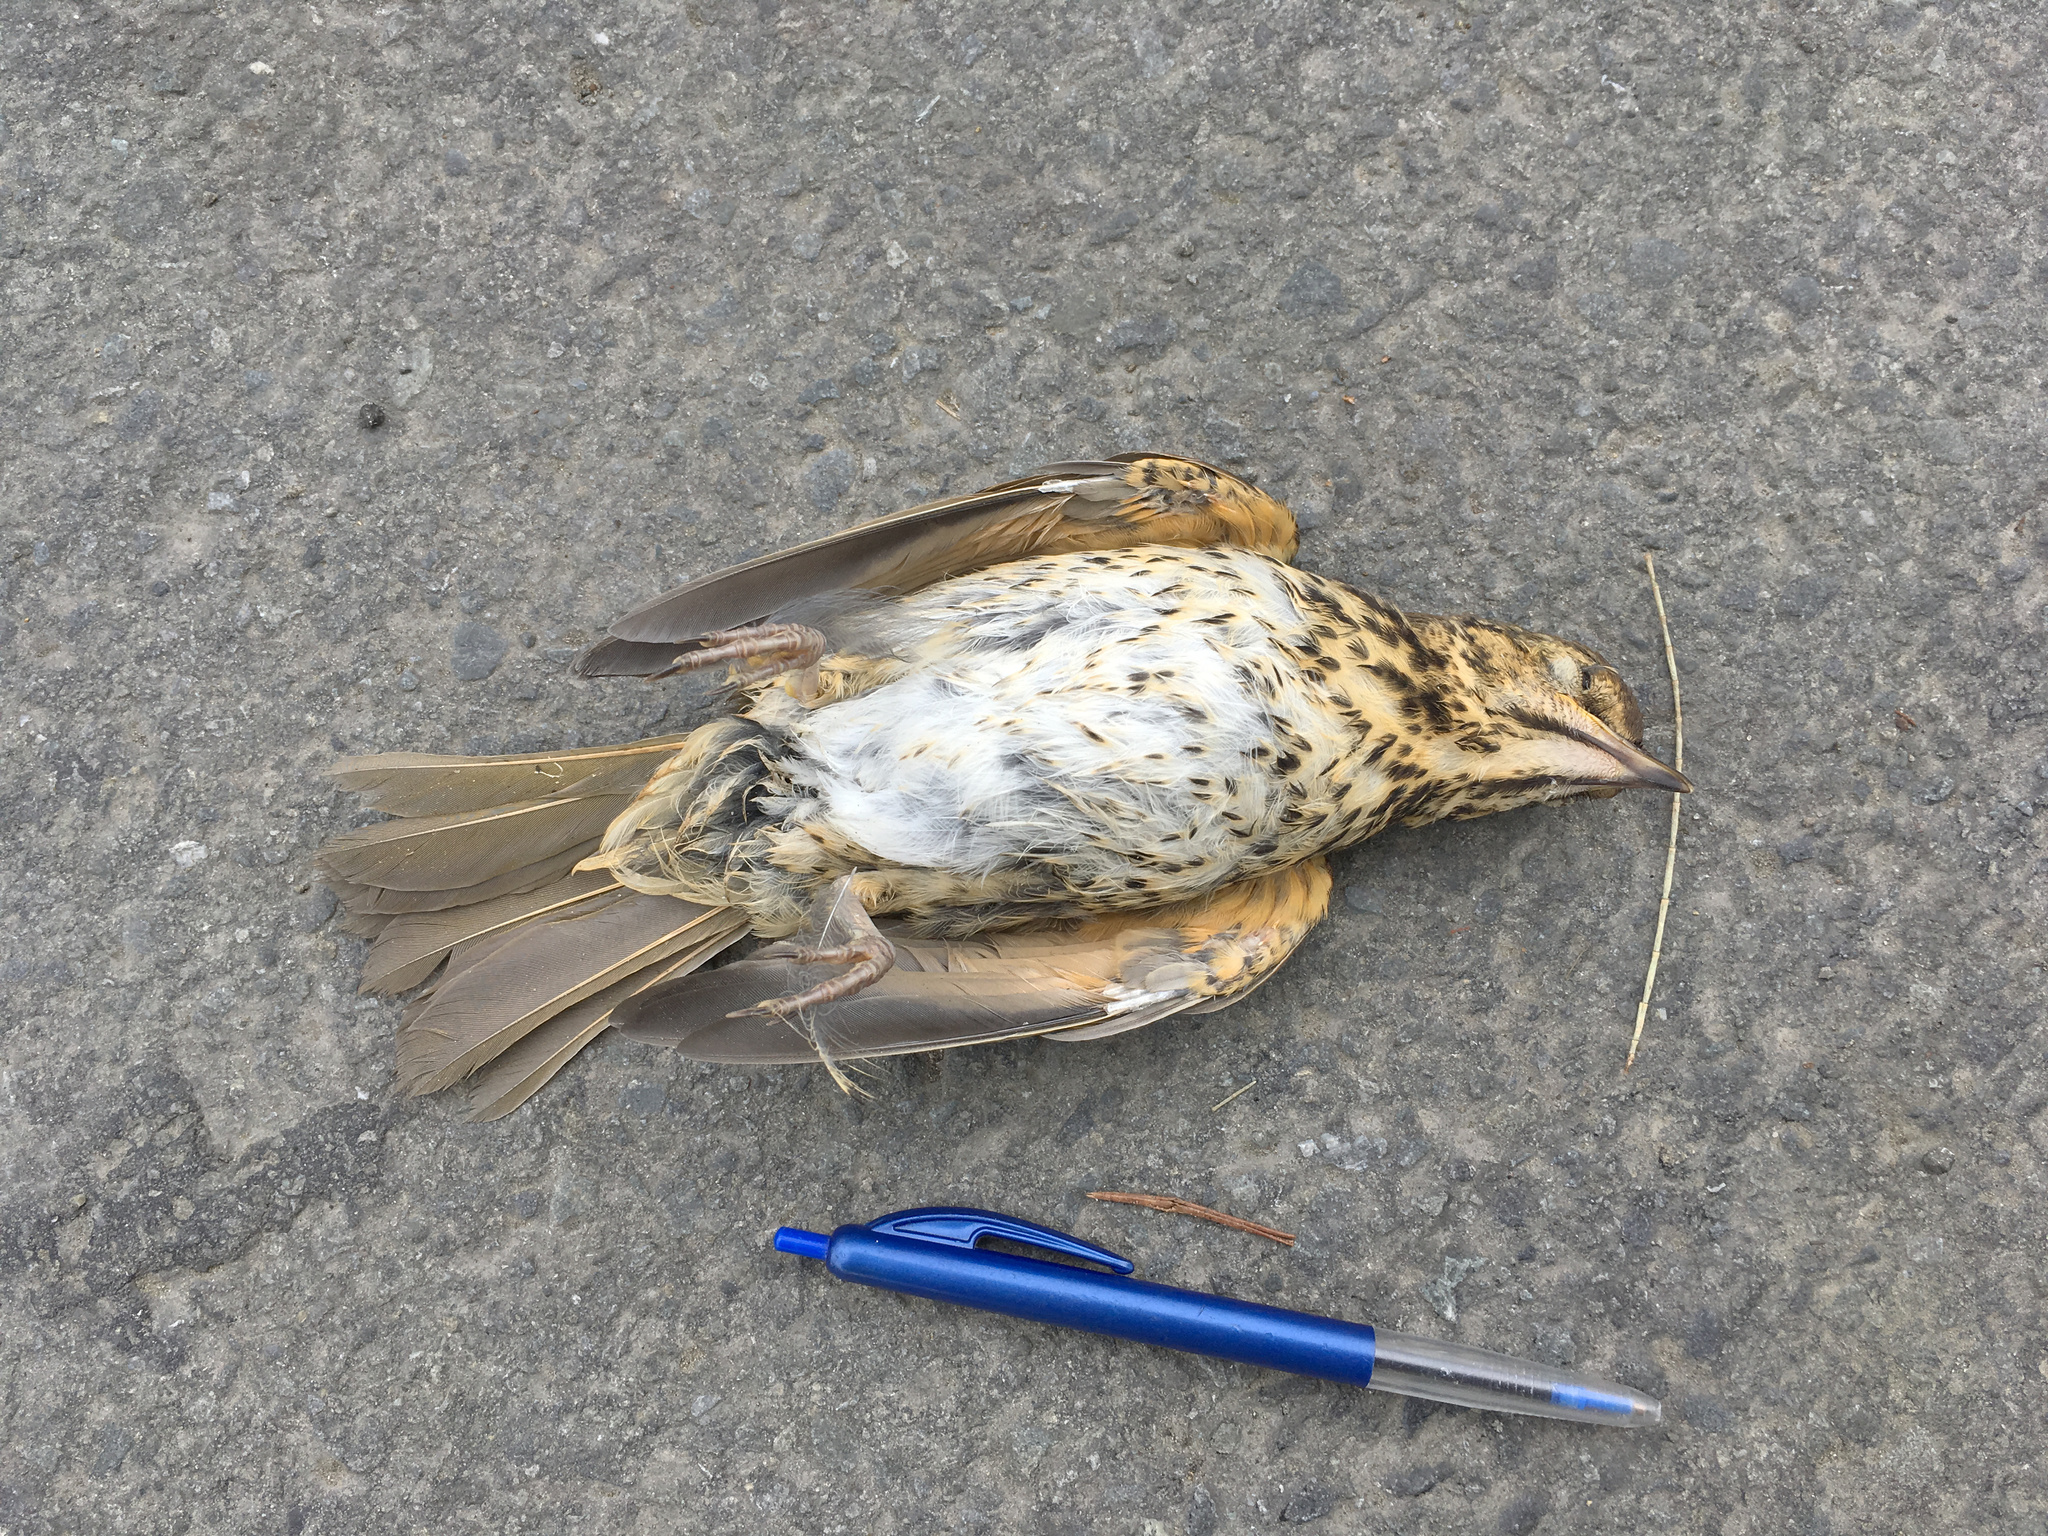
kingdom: Animalia
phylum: Chordata
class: Aves
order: Passeriformes
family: Turdidae
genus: Turdus
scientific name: Turdus philomelos
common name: Song thrush
